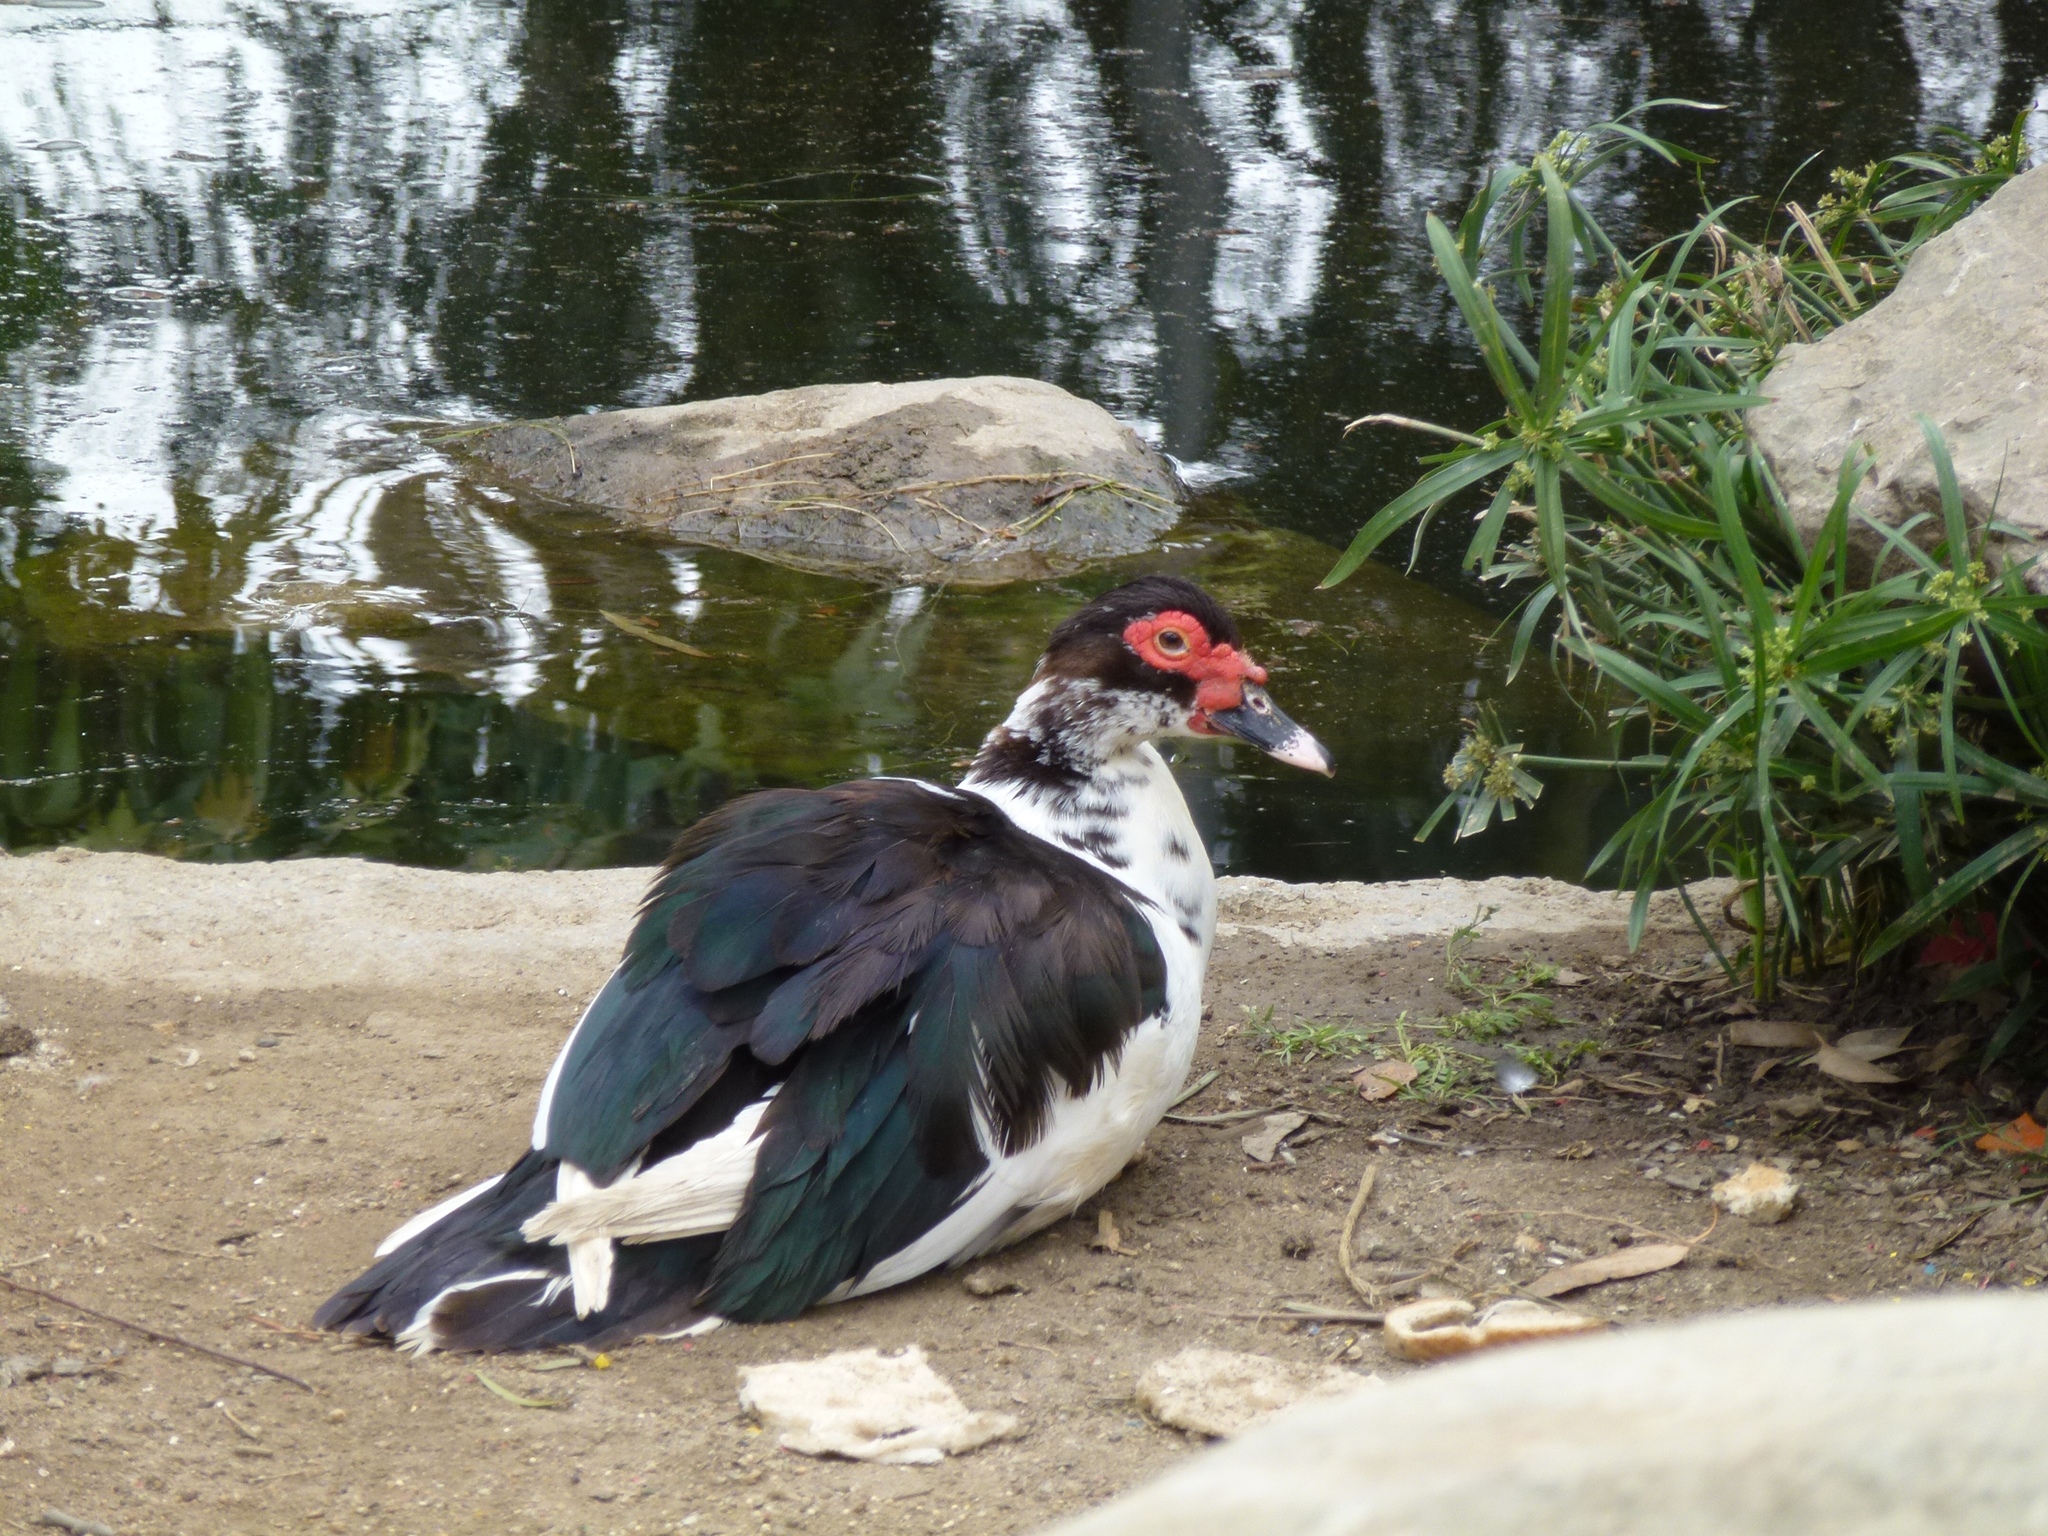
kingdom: Animalia
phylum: Chordata
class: Aves
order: Anseriformes
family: Anatidae
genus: Cairina
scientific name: Cairina moschata
